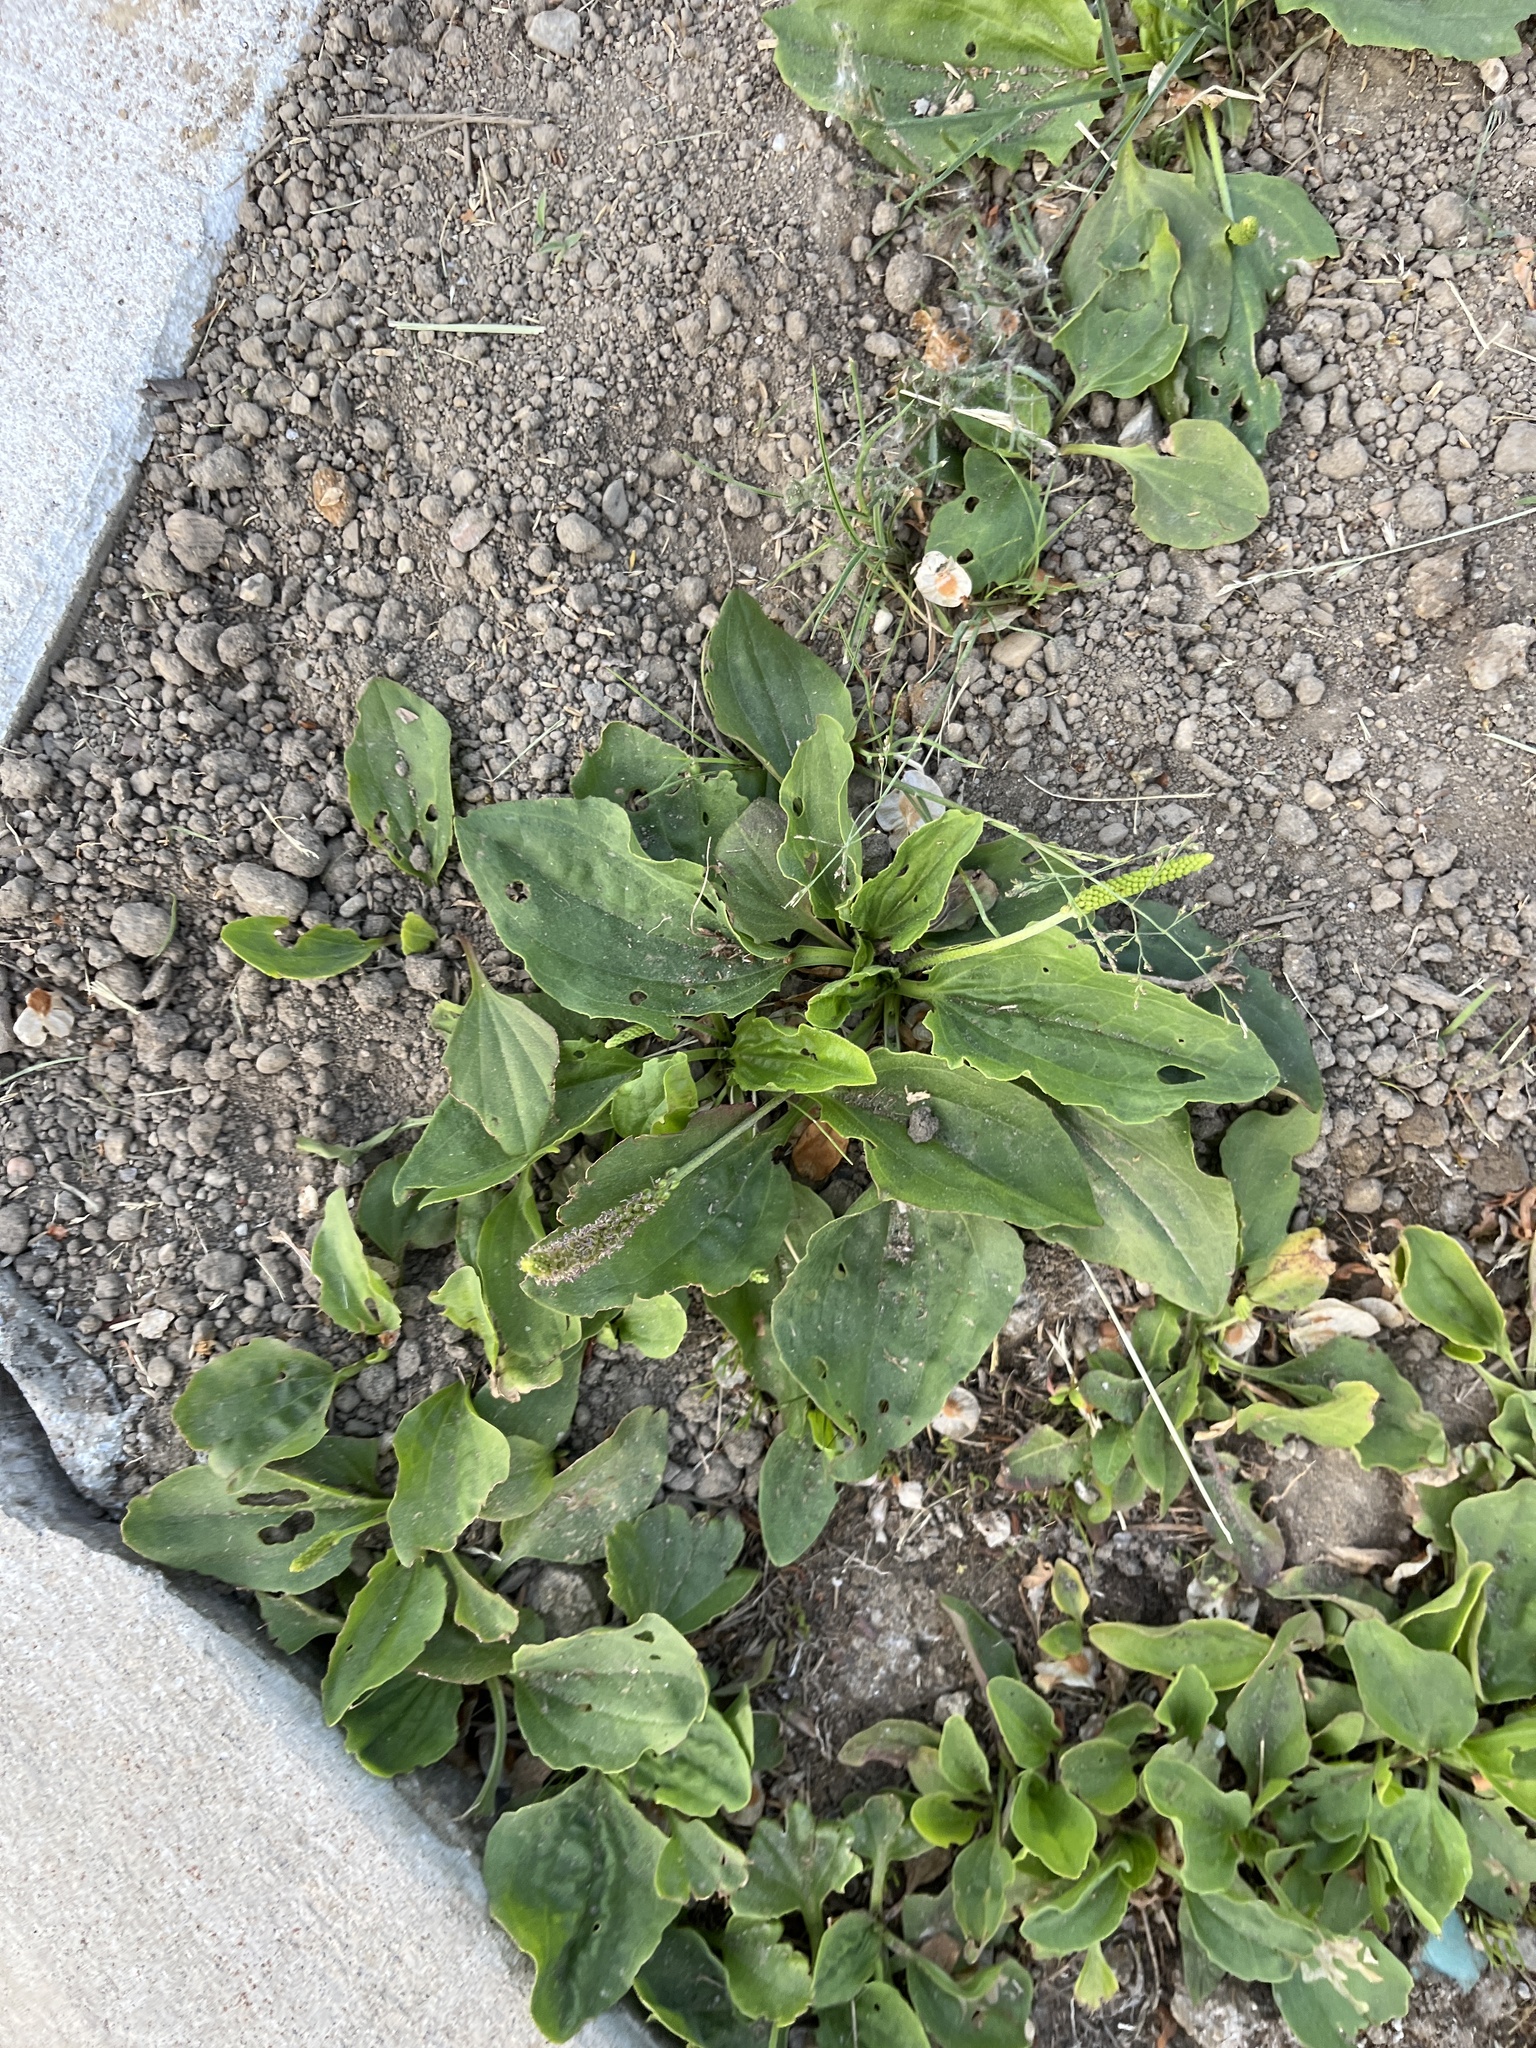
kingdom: Plantae
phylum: Tracheophyta
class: Magnoliopsida
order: Lamiales
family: Plantaginaceae
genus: Plantago
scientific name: Plantago major
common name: Common plantain
